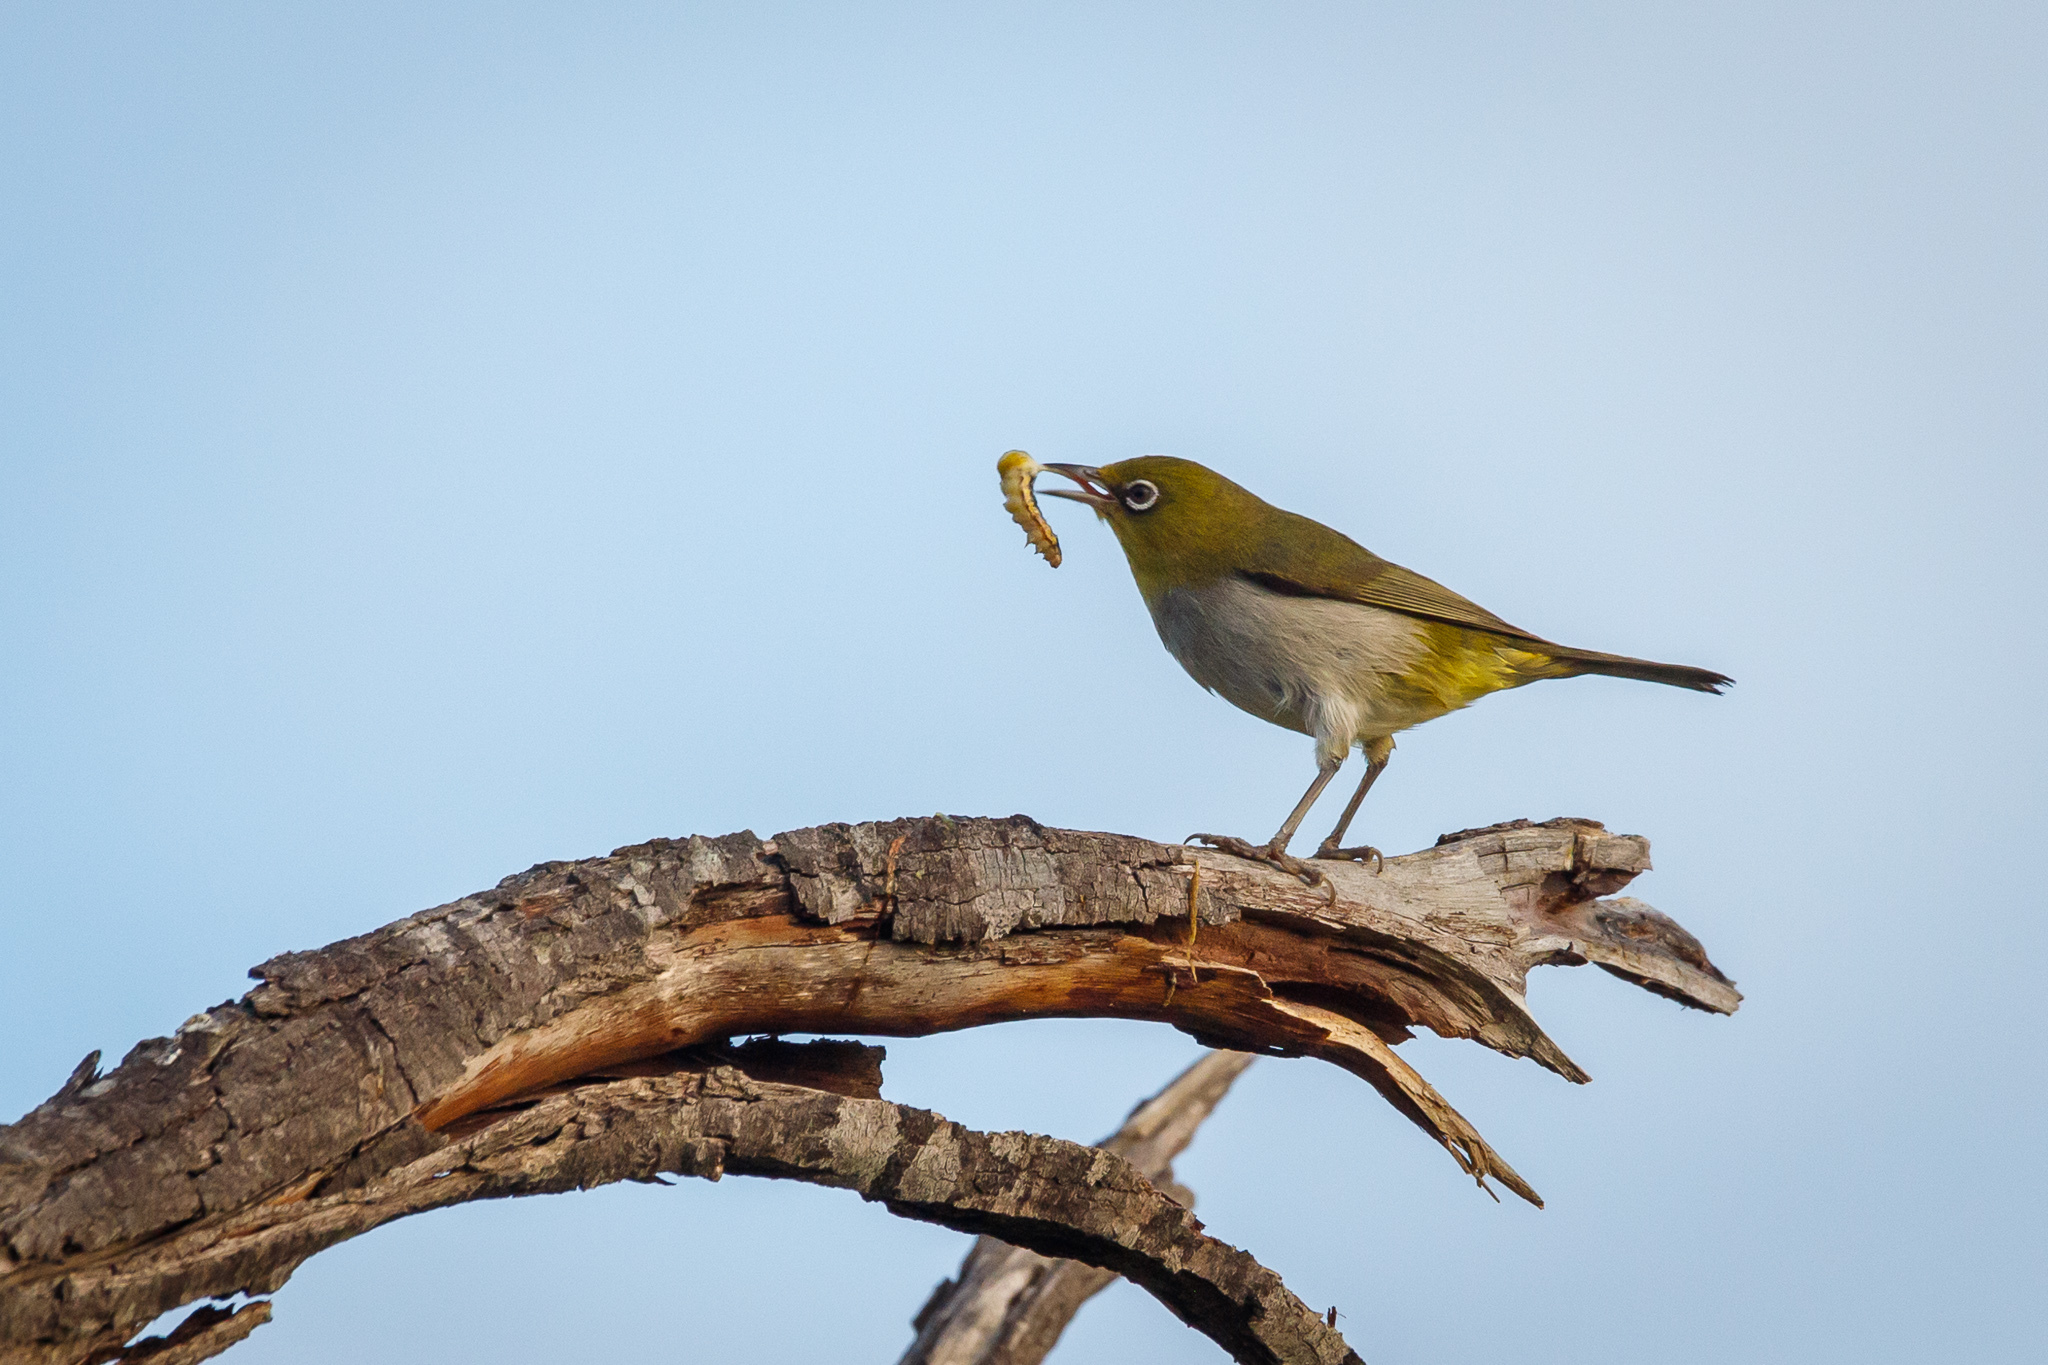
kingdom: Animalia
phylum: Chordata
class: Aves
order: Passeriformes
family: Zosteropidae
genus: Zosterops
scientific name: Zosterops lateralis
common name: Silvereye
